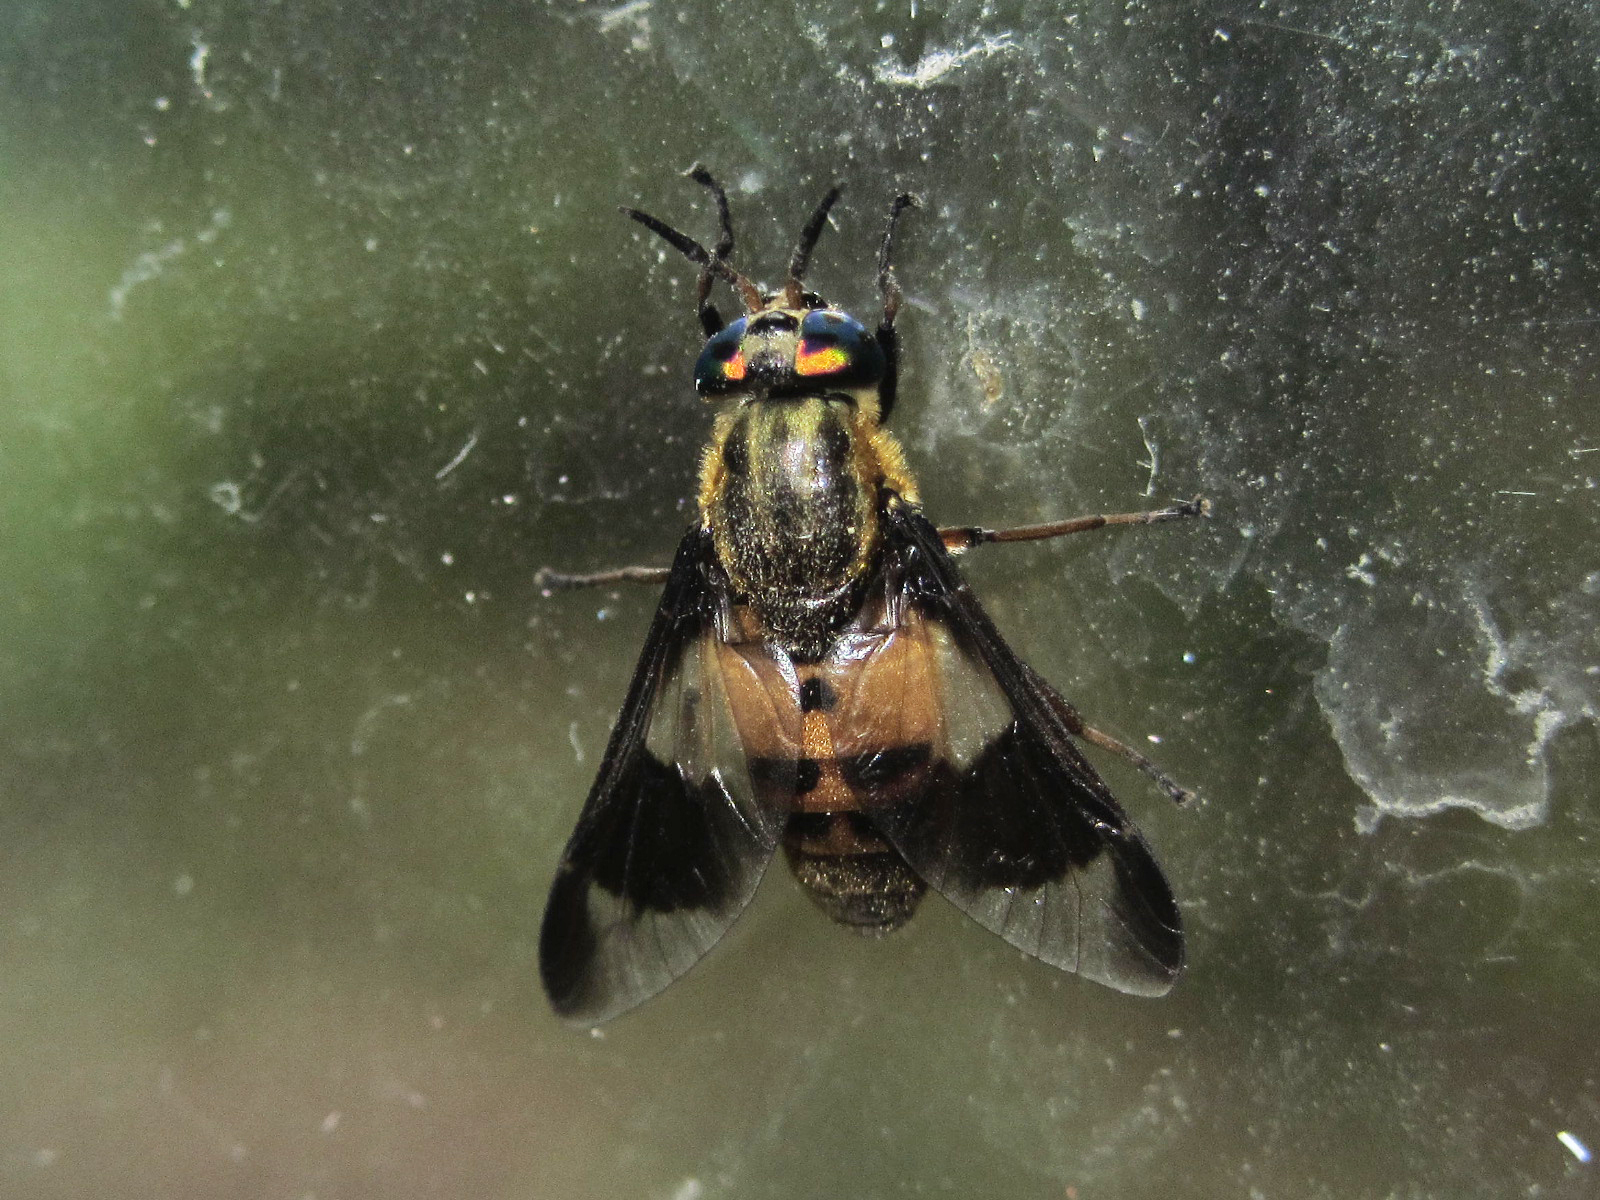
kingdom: Animalia
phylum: Arthropoda
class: Insecta
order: Diptera
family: Tabanidae
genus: Chrysops
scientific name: Chrysops viduatus
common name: Square-spot deerfly
